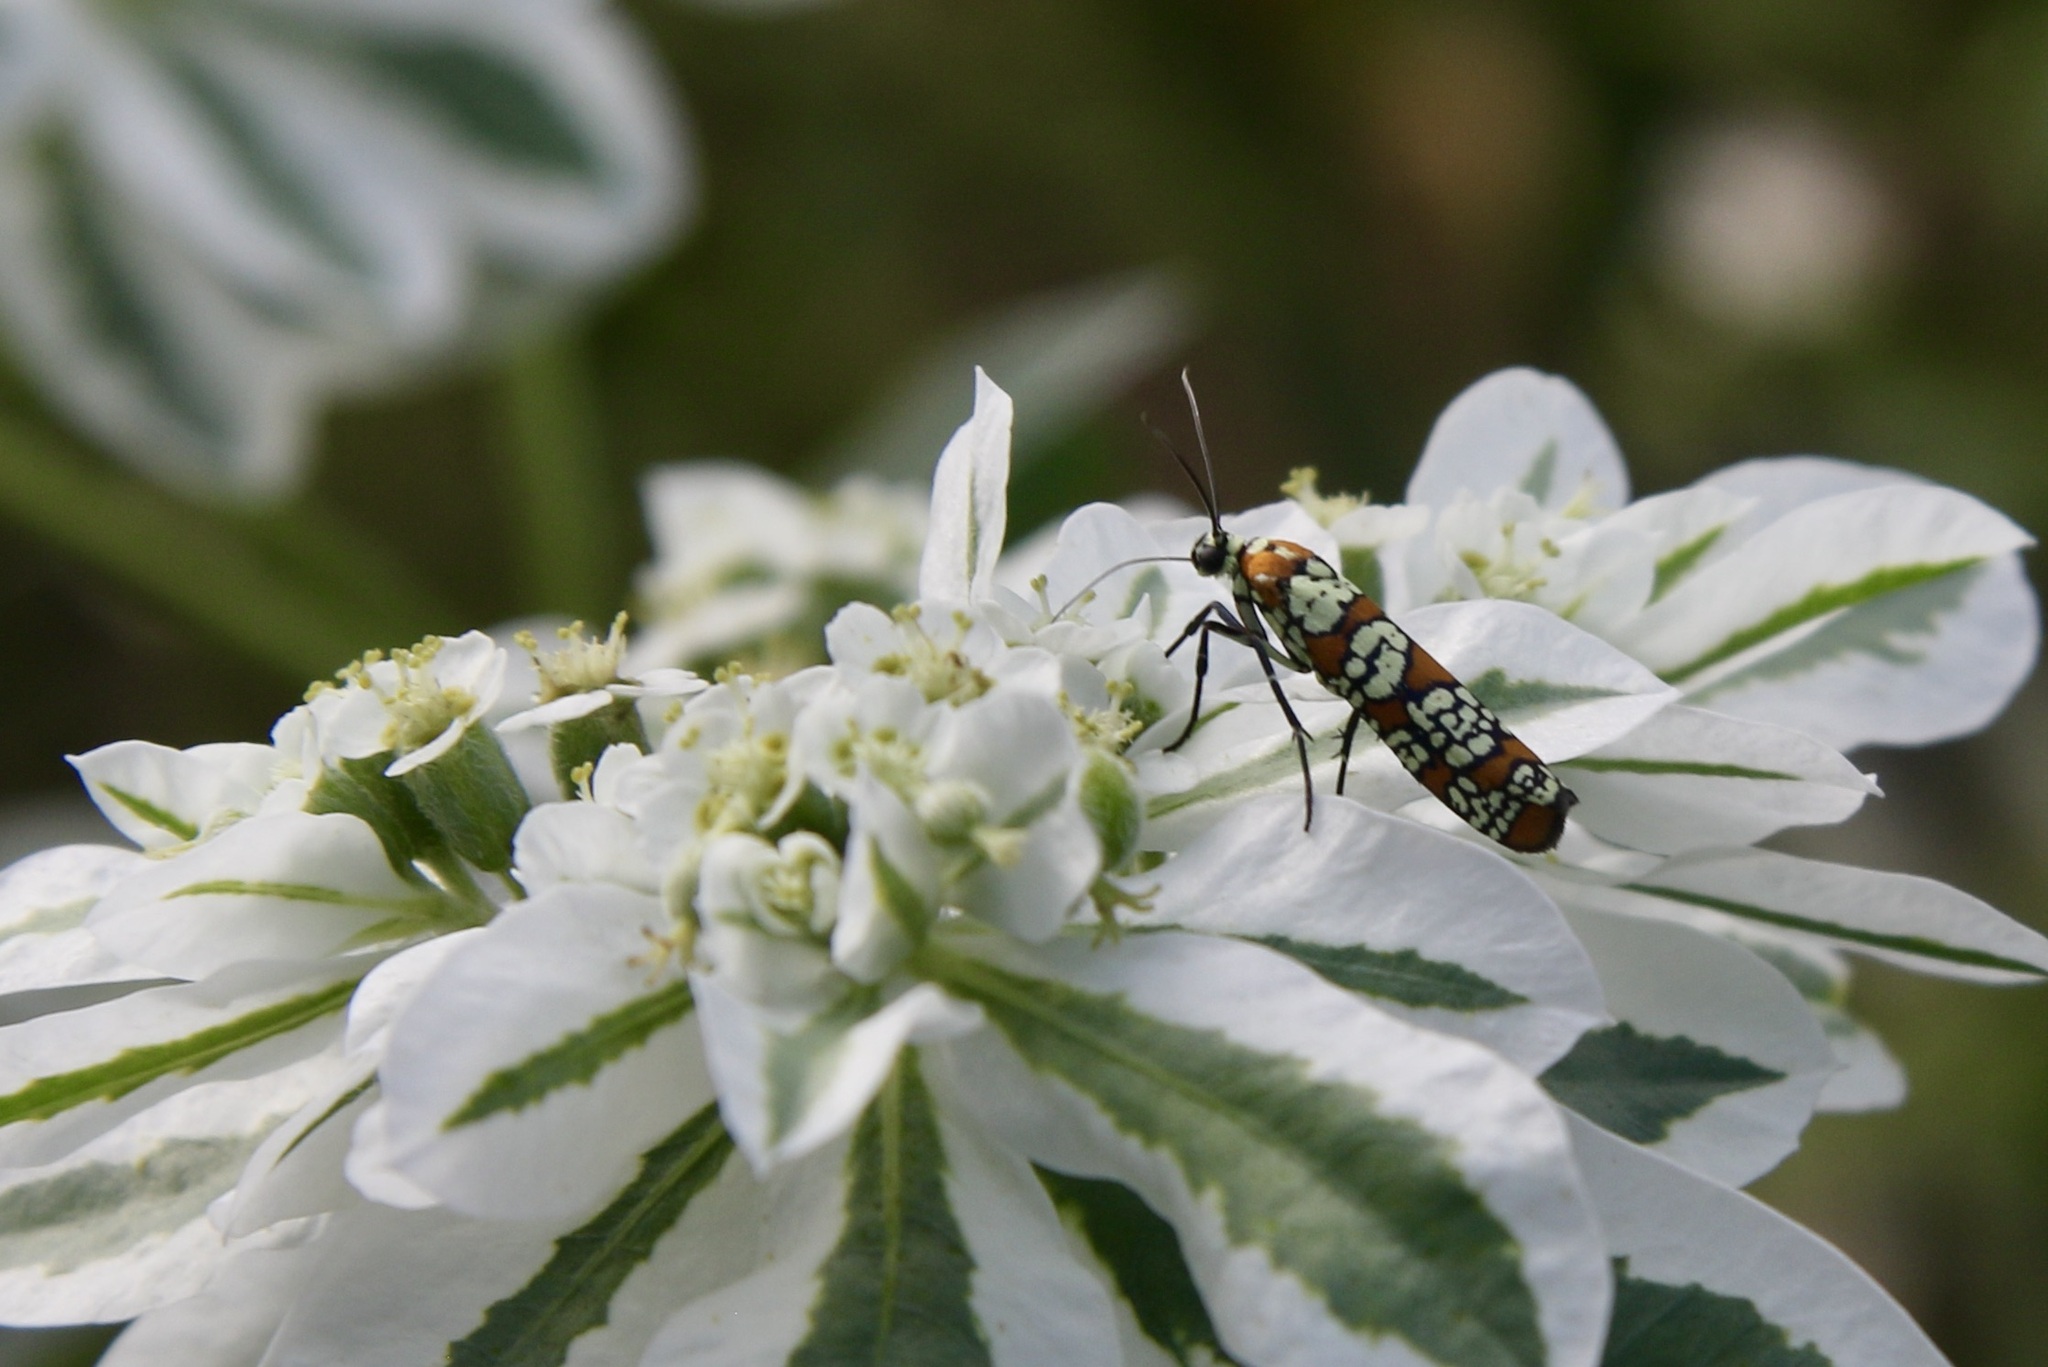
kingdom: Animalia
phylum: Arthropoda
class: Insecta
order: Lepidoptera
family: Attevidae
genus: Atteva
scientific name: Atteva punctella
